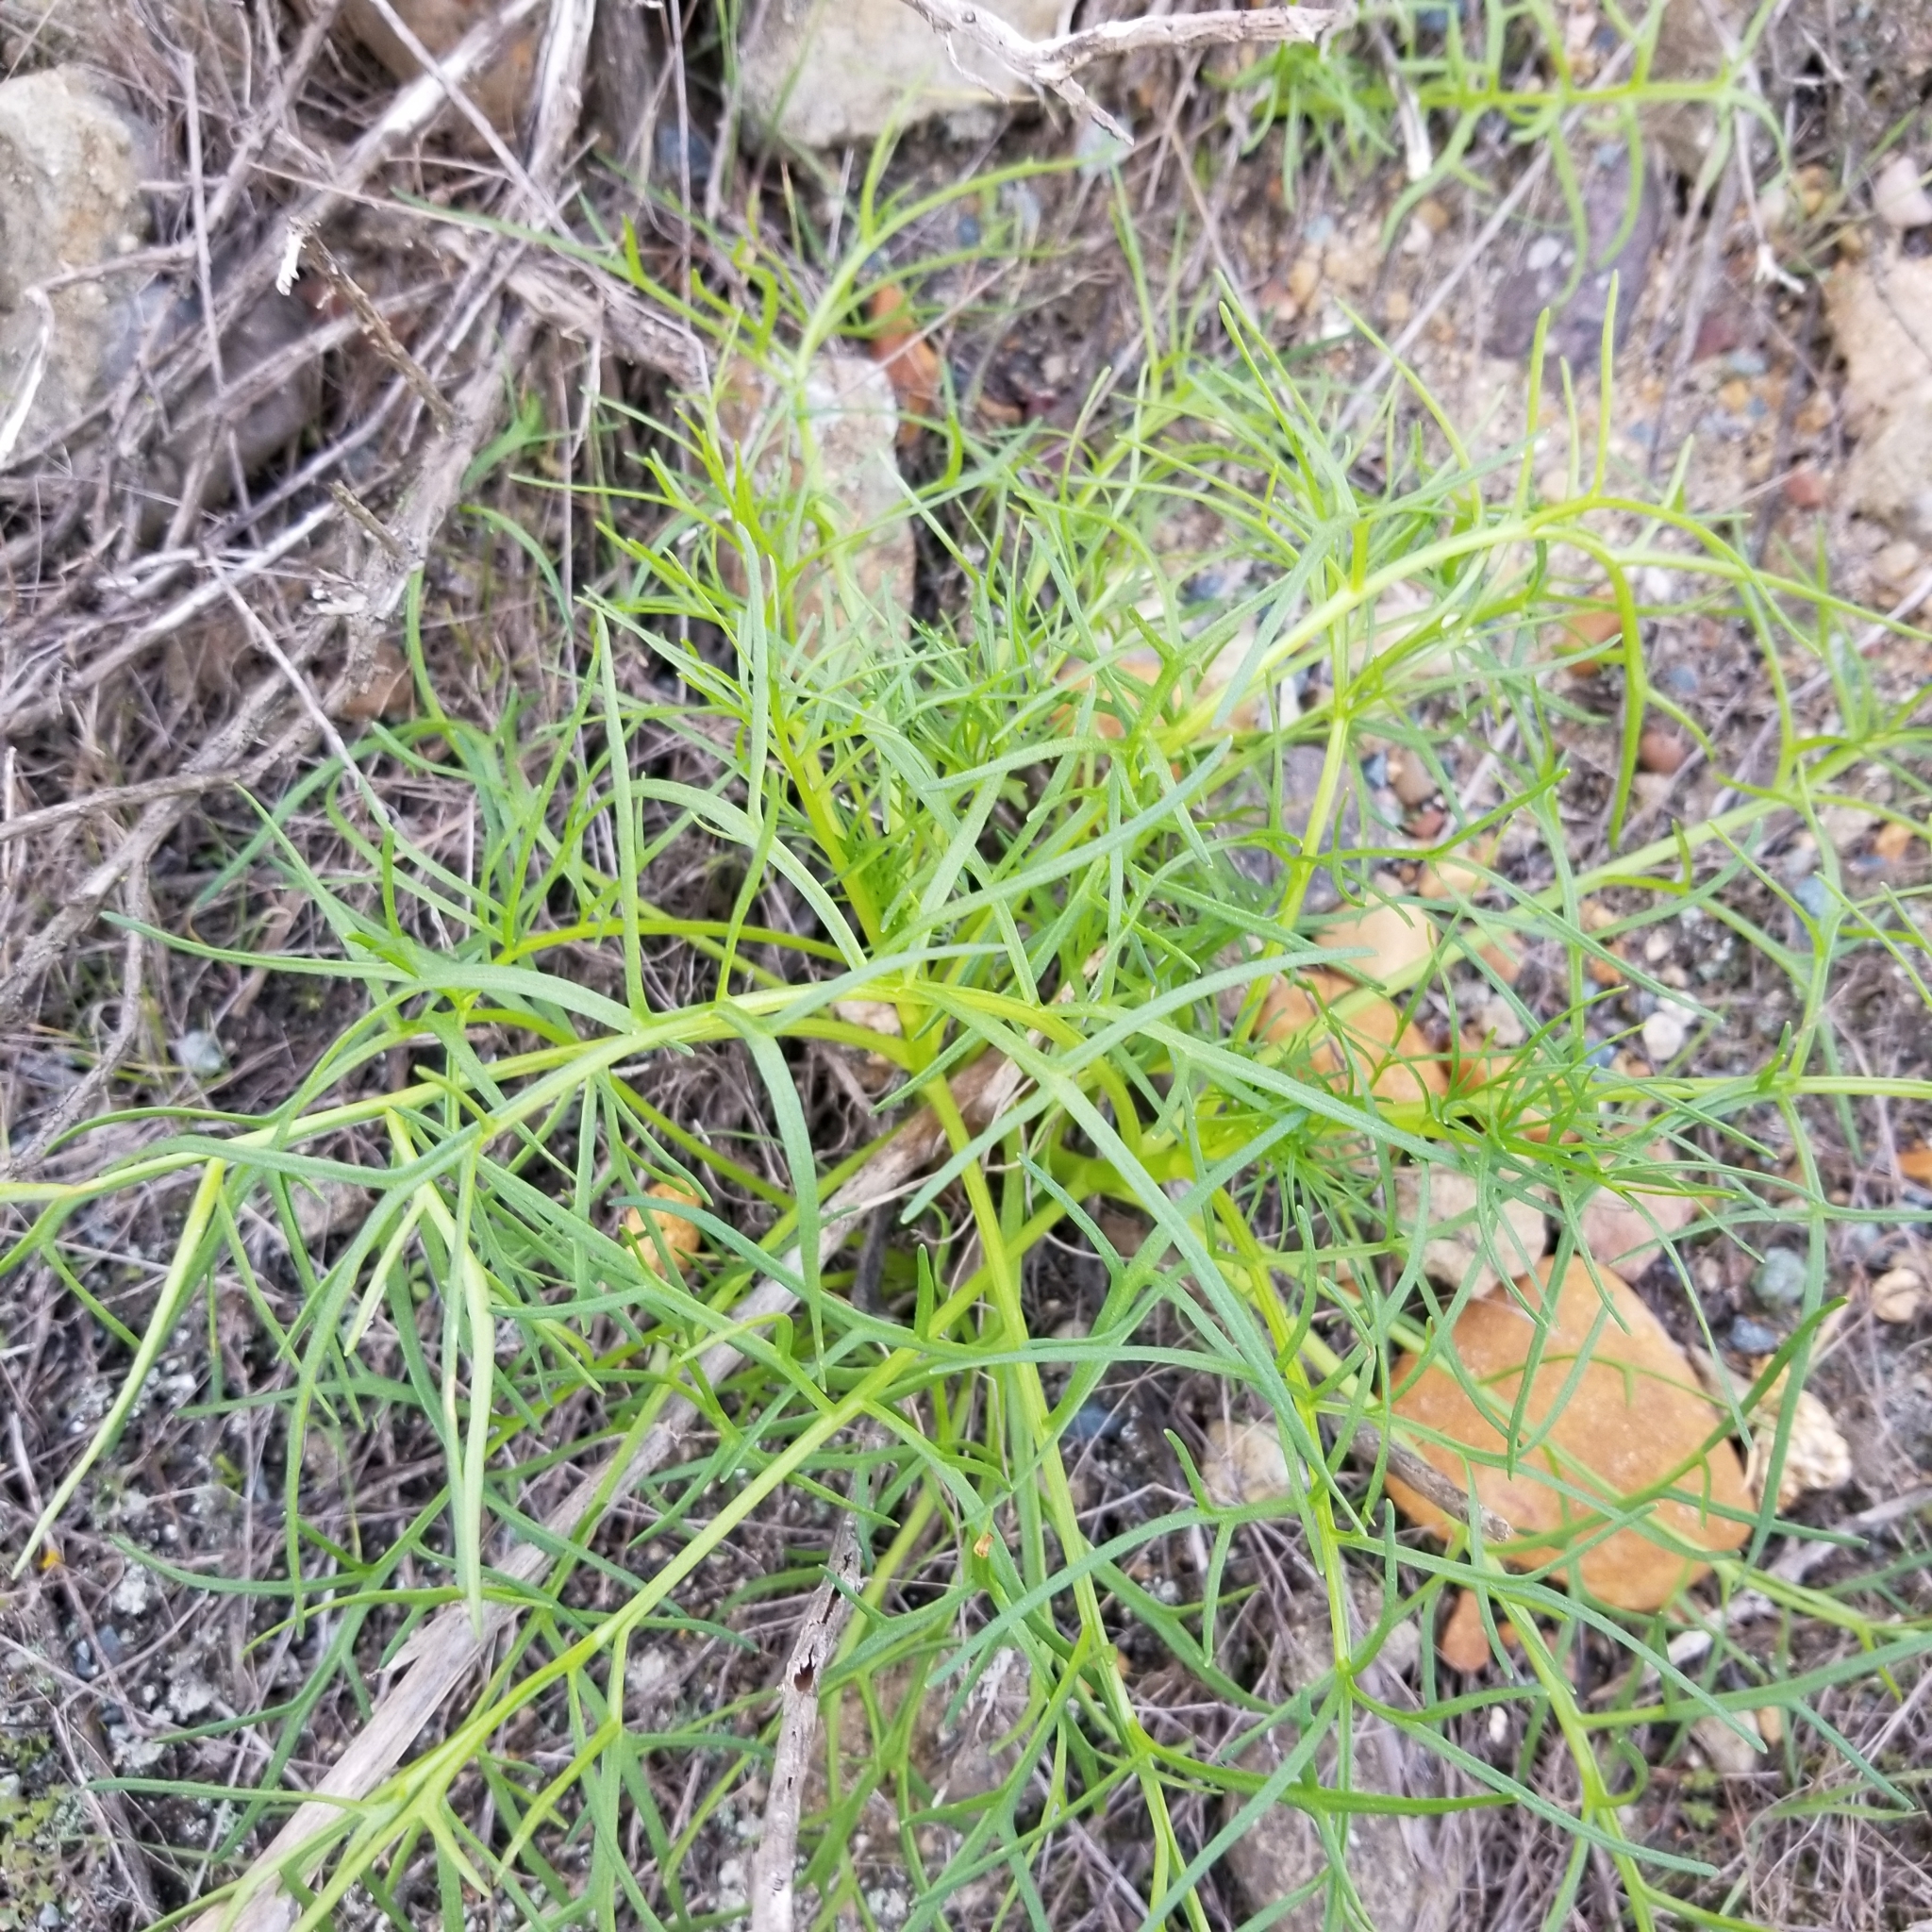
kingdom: Plantae
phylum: Tracheophyta
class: Magnoliopsida
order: Asterales
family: Asteraceae
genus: Coreopsis
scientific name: Coreopsis maritima
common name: Sea-dahlia
